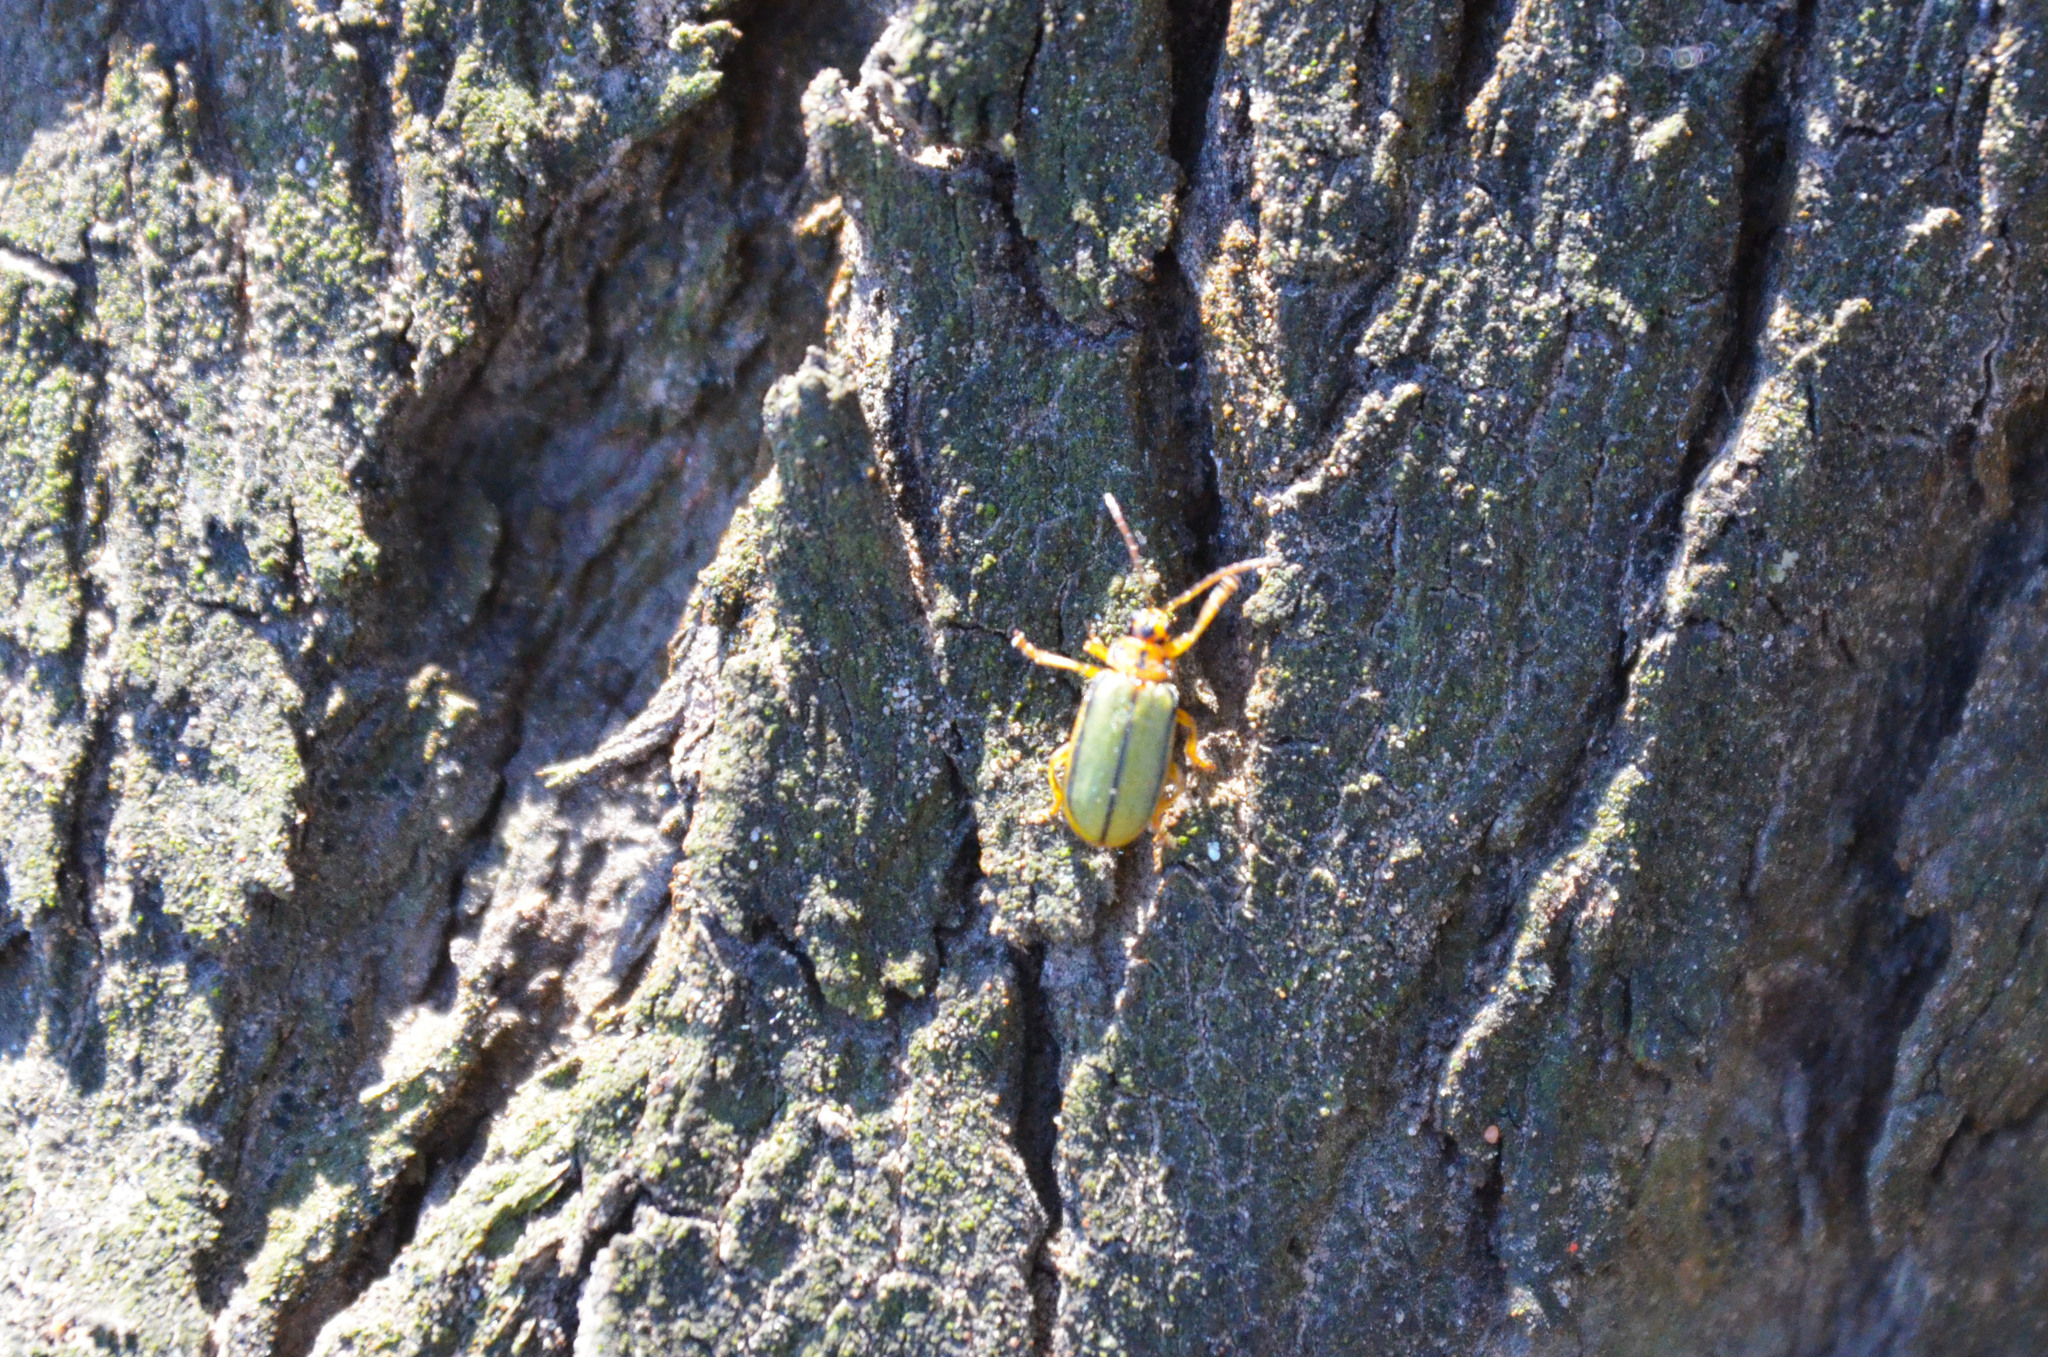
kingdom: Animalia
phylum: Arthropoda
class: Insecta
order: Coleoptera
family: Chrysomelidae
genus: Xanthogaleruca
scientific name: Xanthogaleruca luteola
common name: Elm leaf beetle
